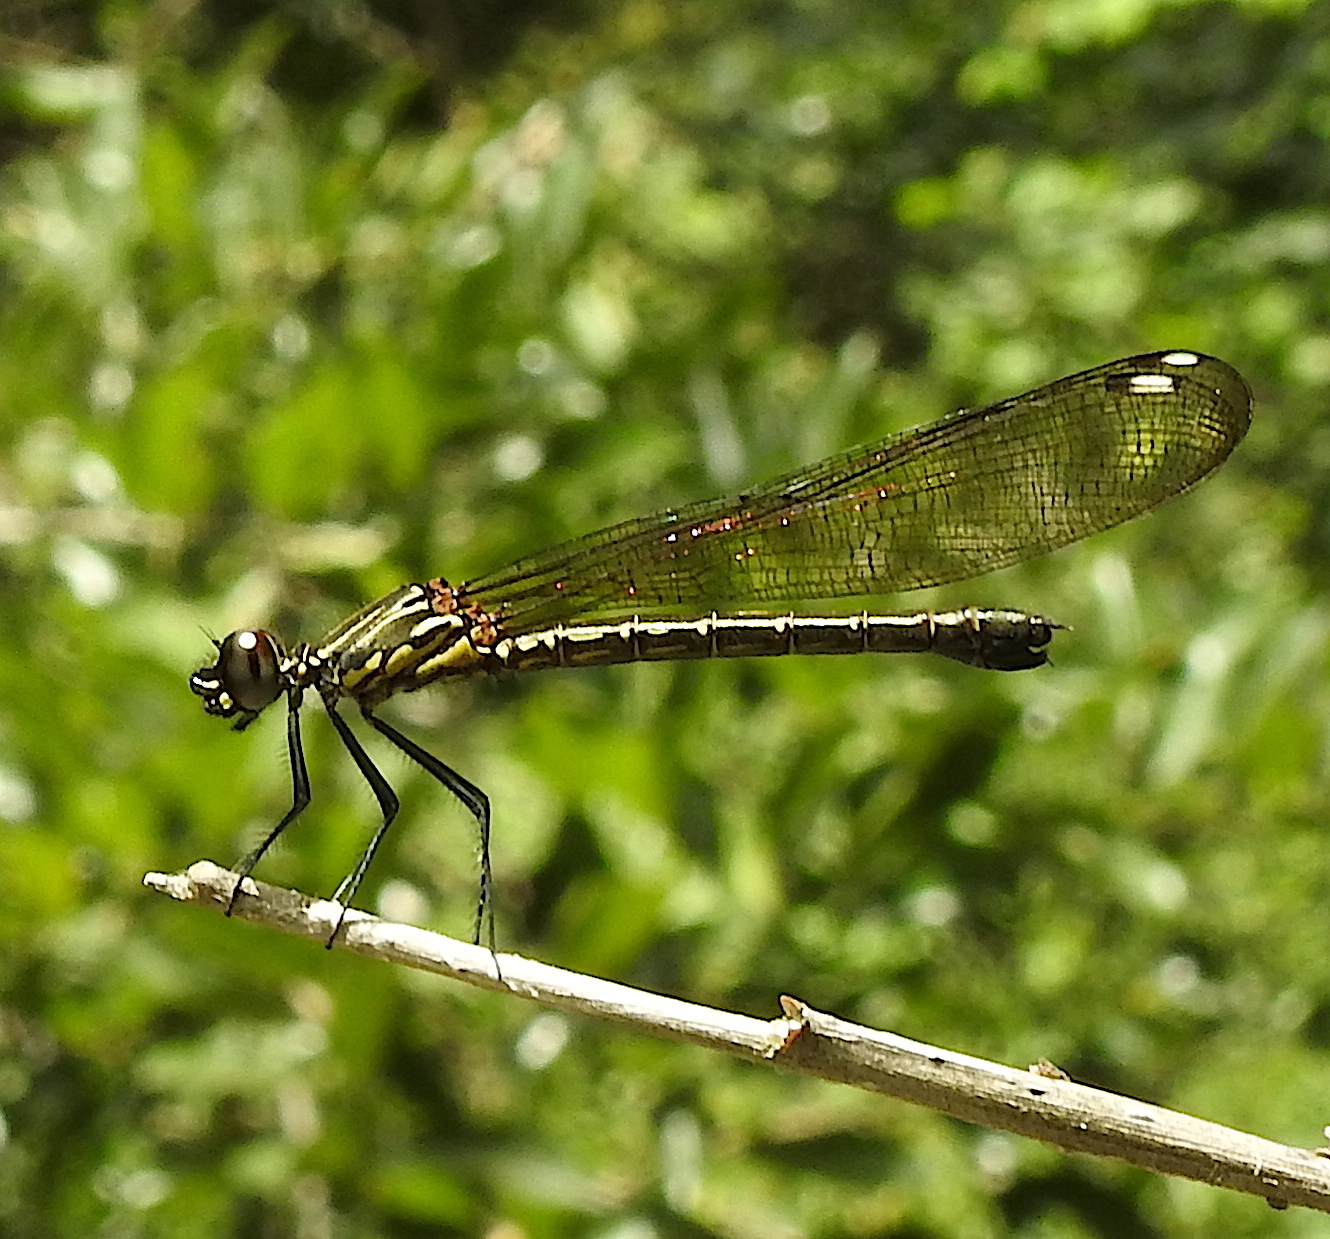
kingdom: Animalia
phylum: Arthropoda
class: Insecta
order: Odonata
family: Chlorocyphidae
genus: Heliocypha
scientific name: Heliocypha bisignata
